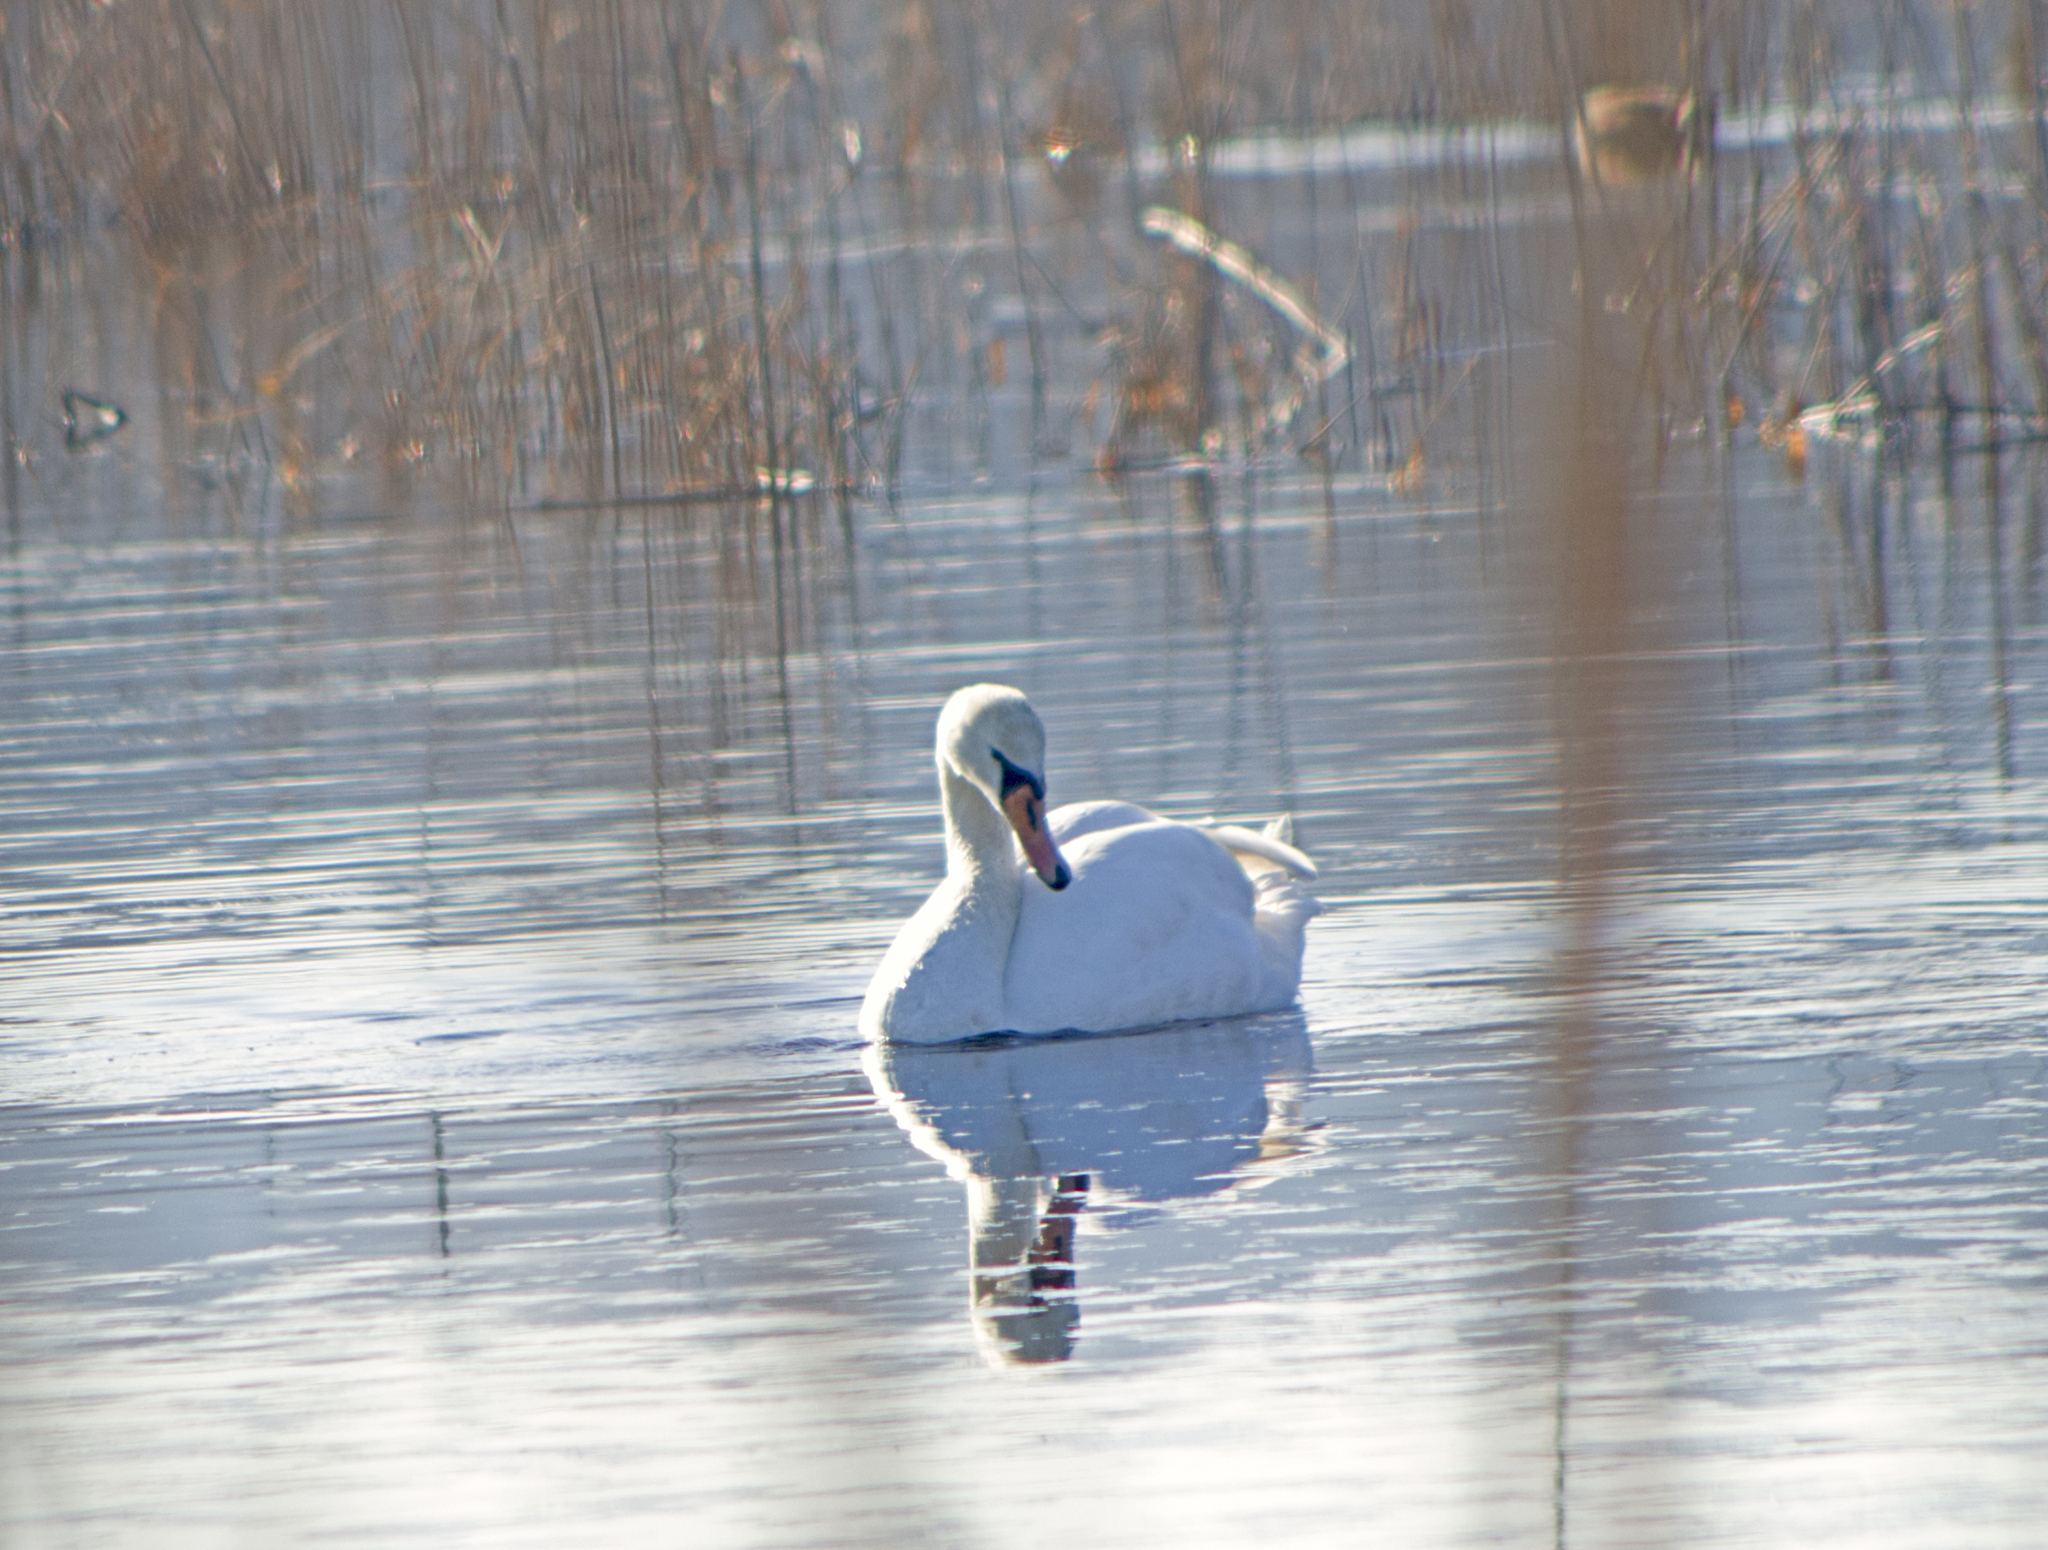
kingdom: Animalia
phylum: Chordata
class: Aves
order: Anseriformes
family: Anatidae
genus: Cygnus
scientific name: Cygnus olor
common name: Mute swan
